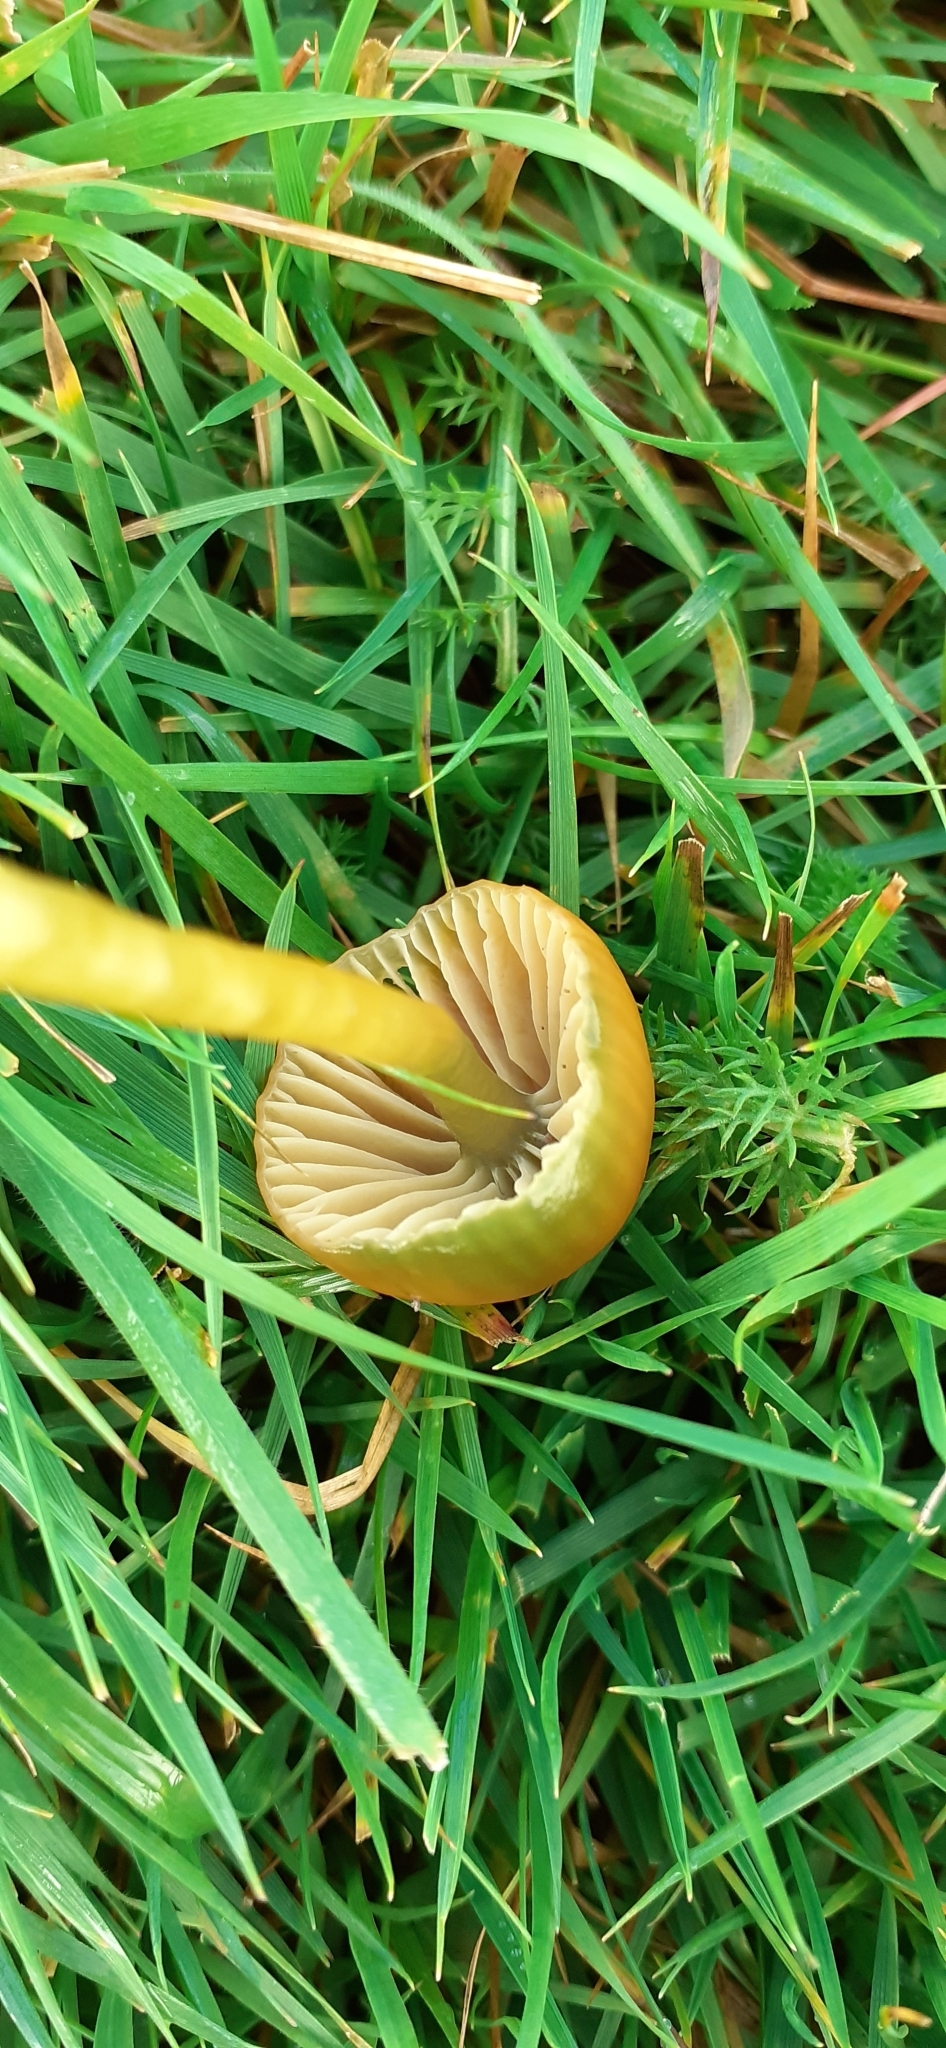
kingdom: Fungi
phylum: Basidiomycota
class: Agaricomycetes
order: Agaricales
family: Hygrophoraceae
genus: Gliophorus
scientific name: Gliophorus psittacinus
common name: Parrot wax-cap
